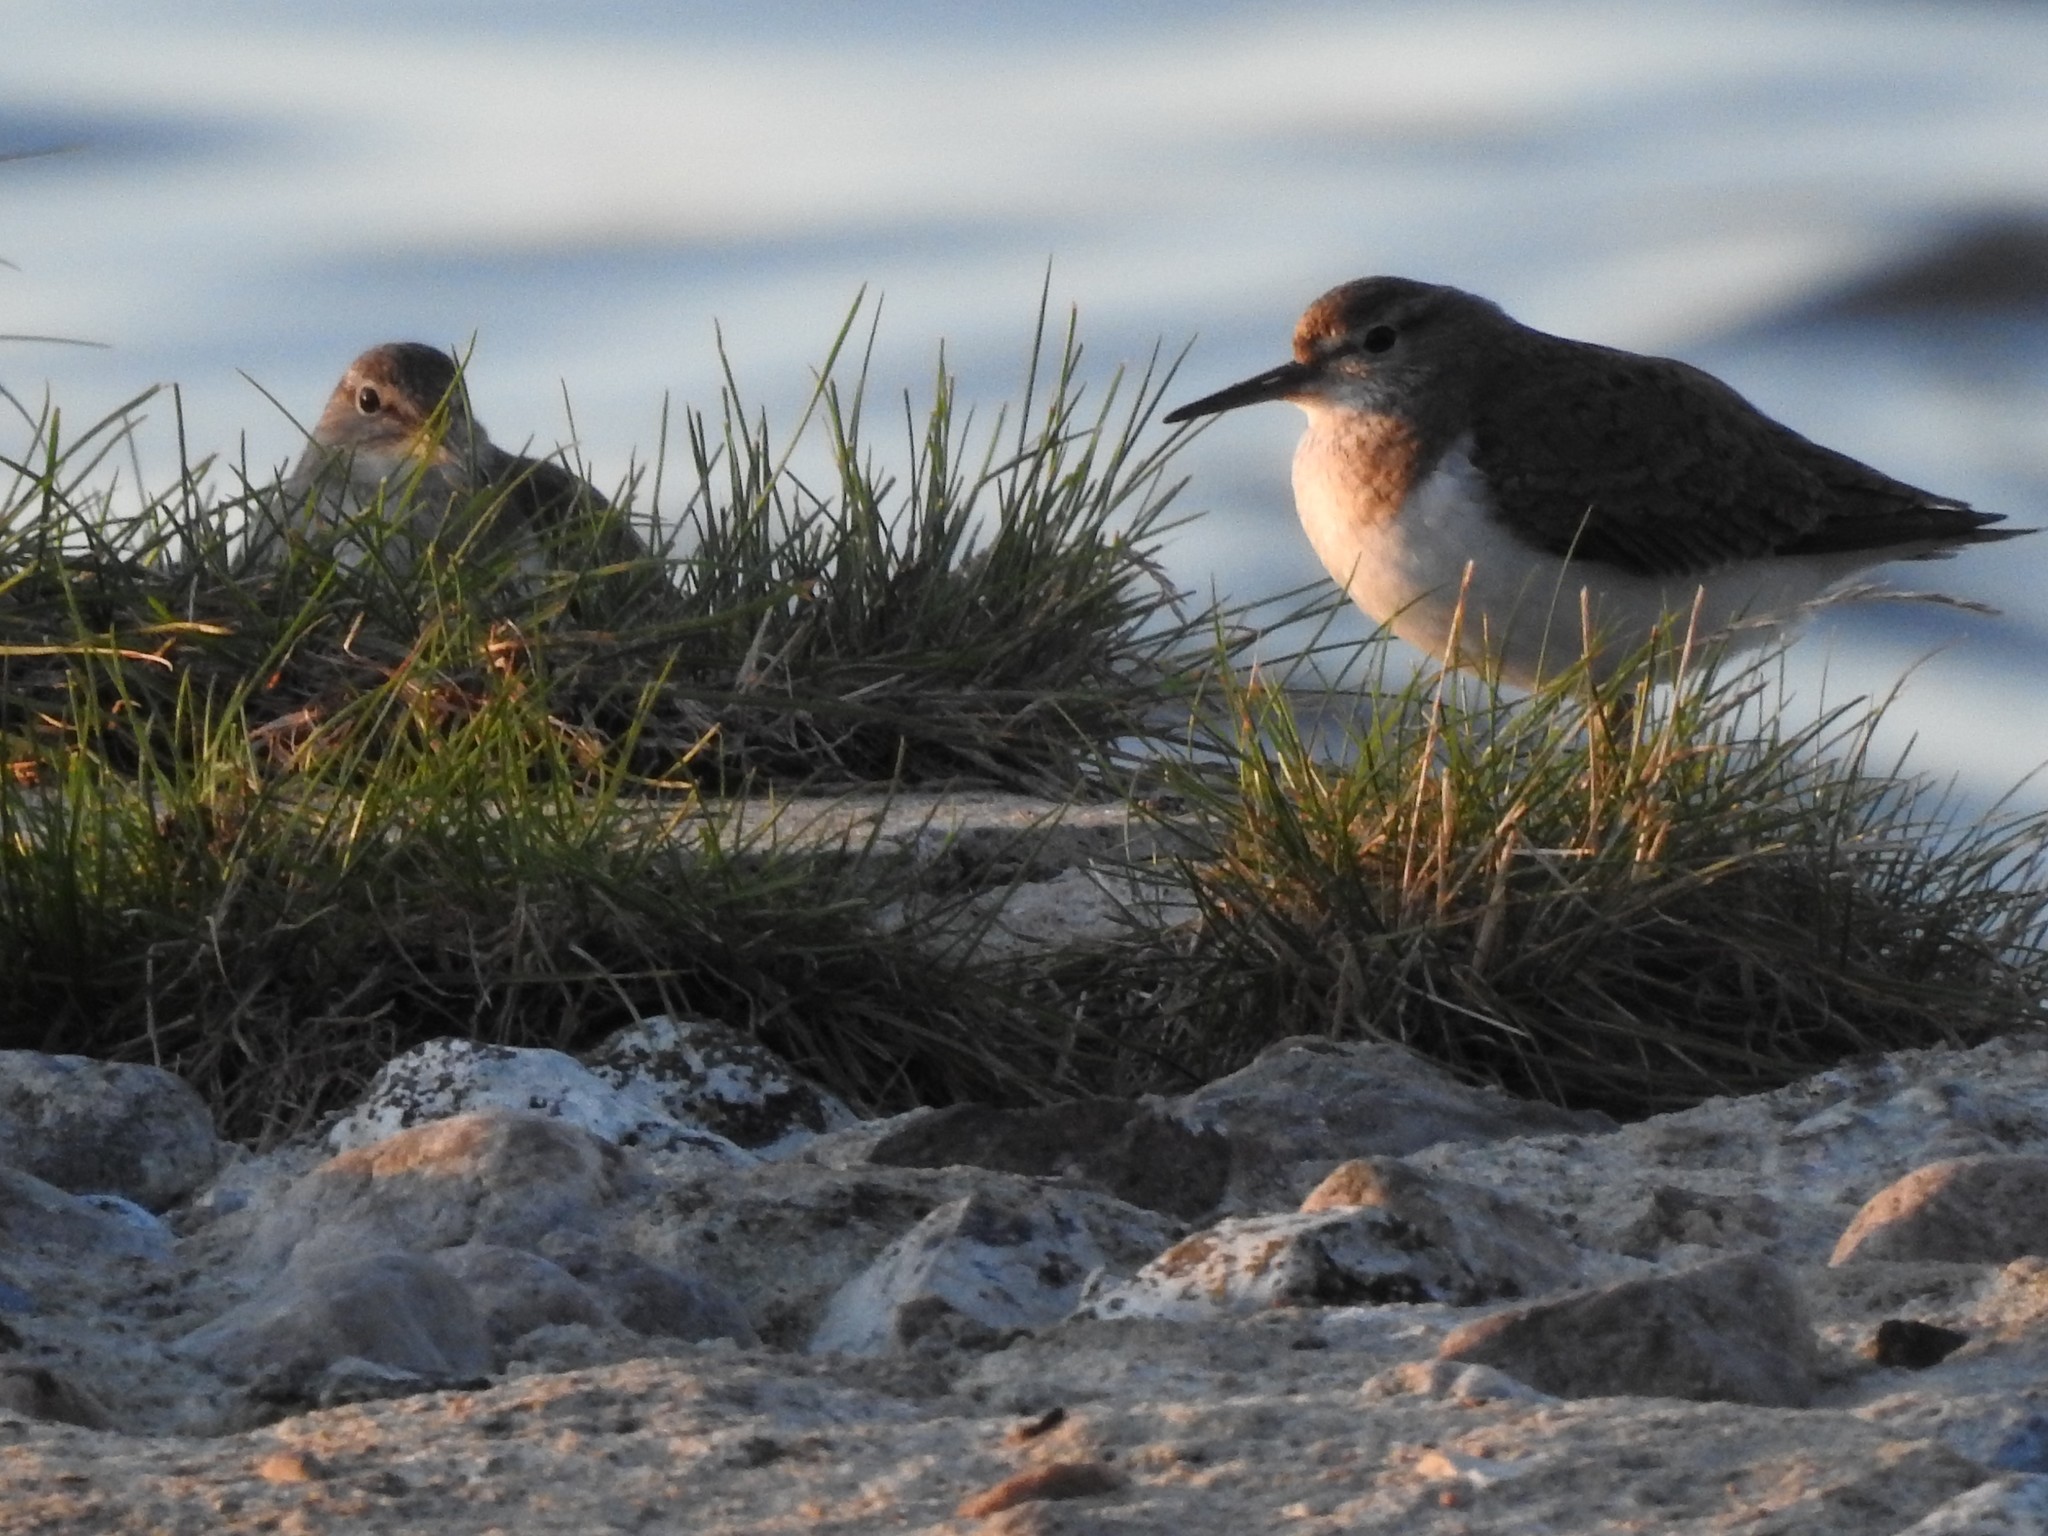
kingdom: Animalia
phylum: Chordata
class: Aves
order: Charadriiformes
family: Scolopacidae
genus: Actitis
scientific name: Actitis hypoleucos
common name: Common sandpiper
